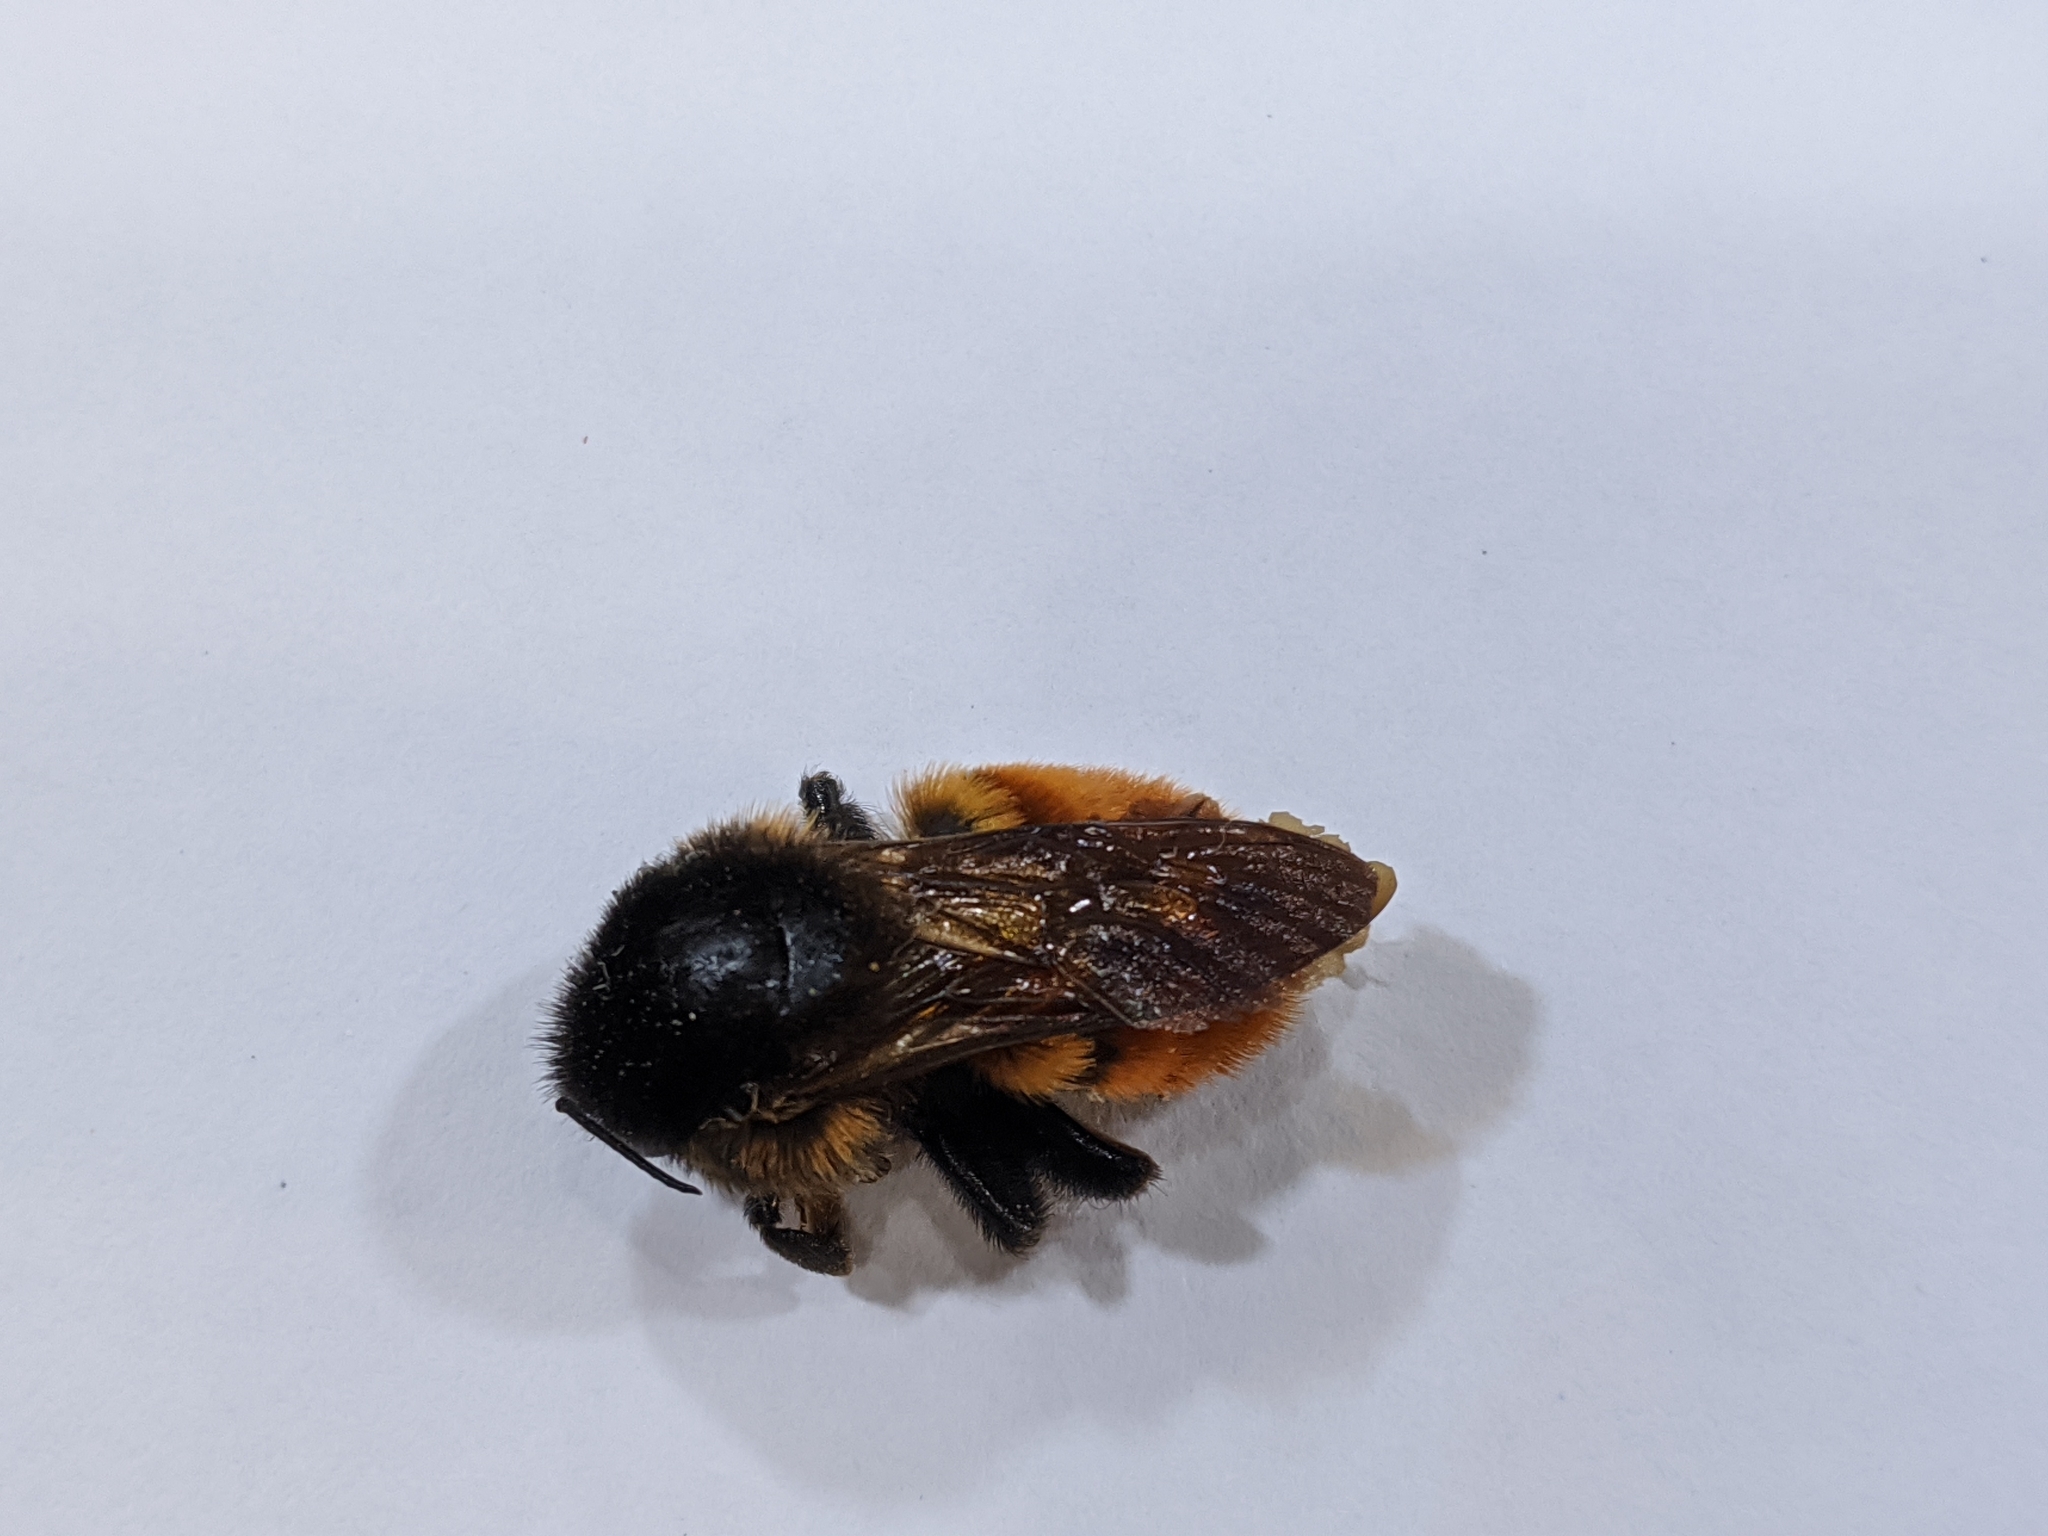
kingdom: Animalia
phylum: Arthropoda
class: Insecta
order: Hymenoptera
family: Apidae
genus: Bombus
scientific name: Bombus bicoloratus
